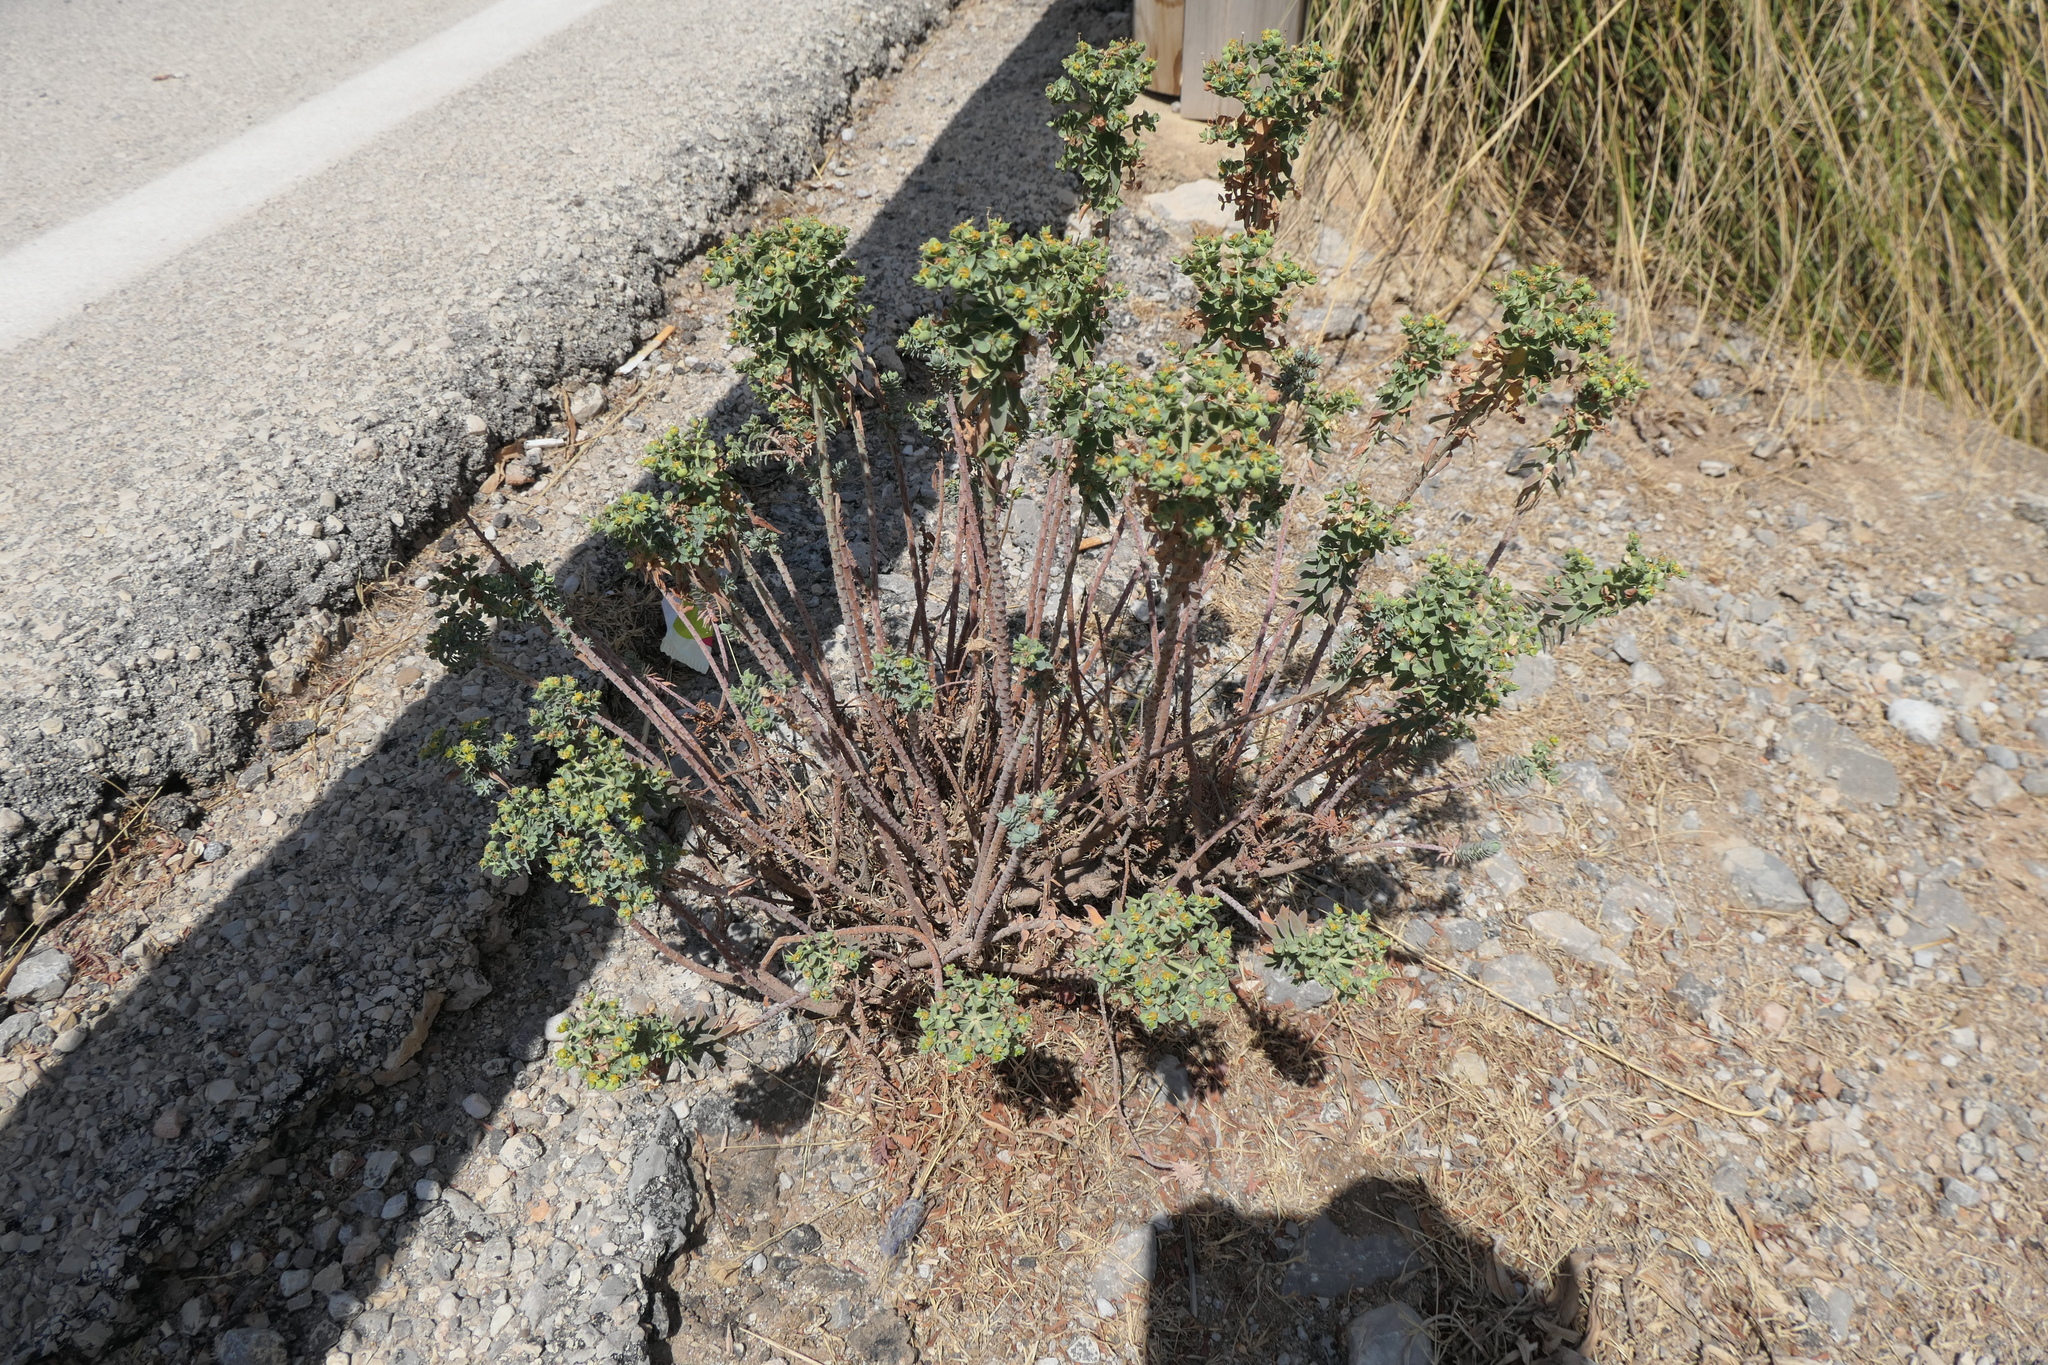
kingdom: Plantae
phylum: Tracheophyta
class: Magnoliopsida
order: Malpighiales
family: Euphorbiaceae
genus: Euphorbia
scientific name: Euphorbia characias
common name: Mediterranean spurge
